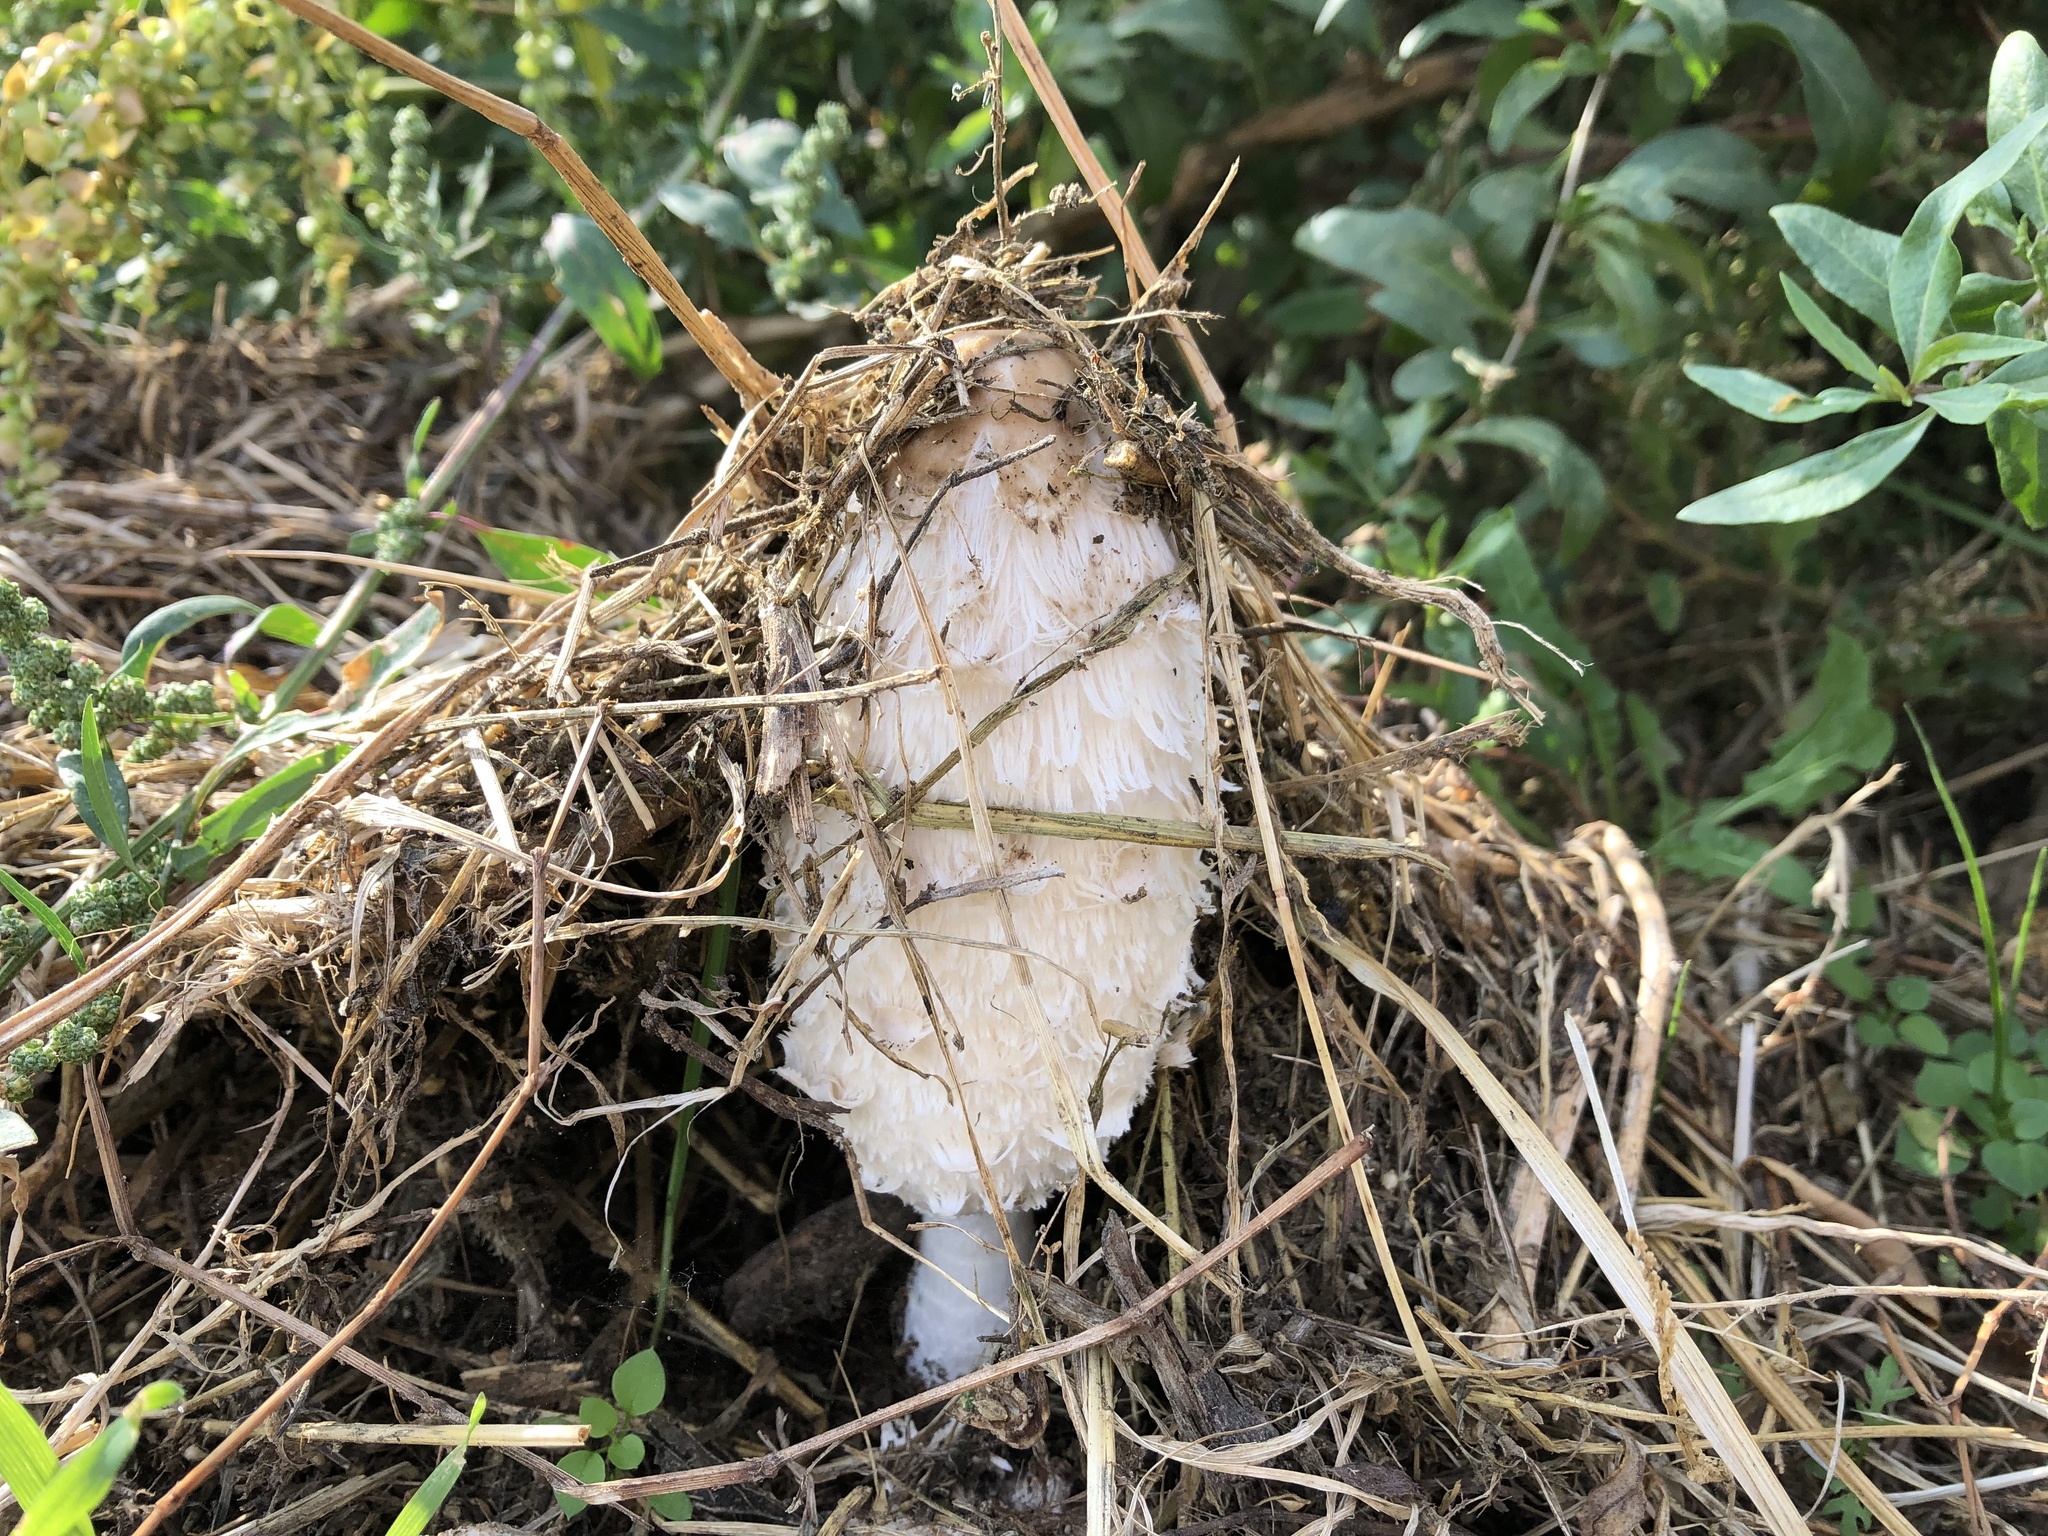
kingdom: Fungi
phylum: Basidiomycota
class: Agaricomycetes
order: Agaricales
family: Agaricaceae
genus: Coprinus
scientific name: Coprinus comatus
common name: Lawyer's wig
